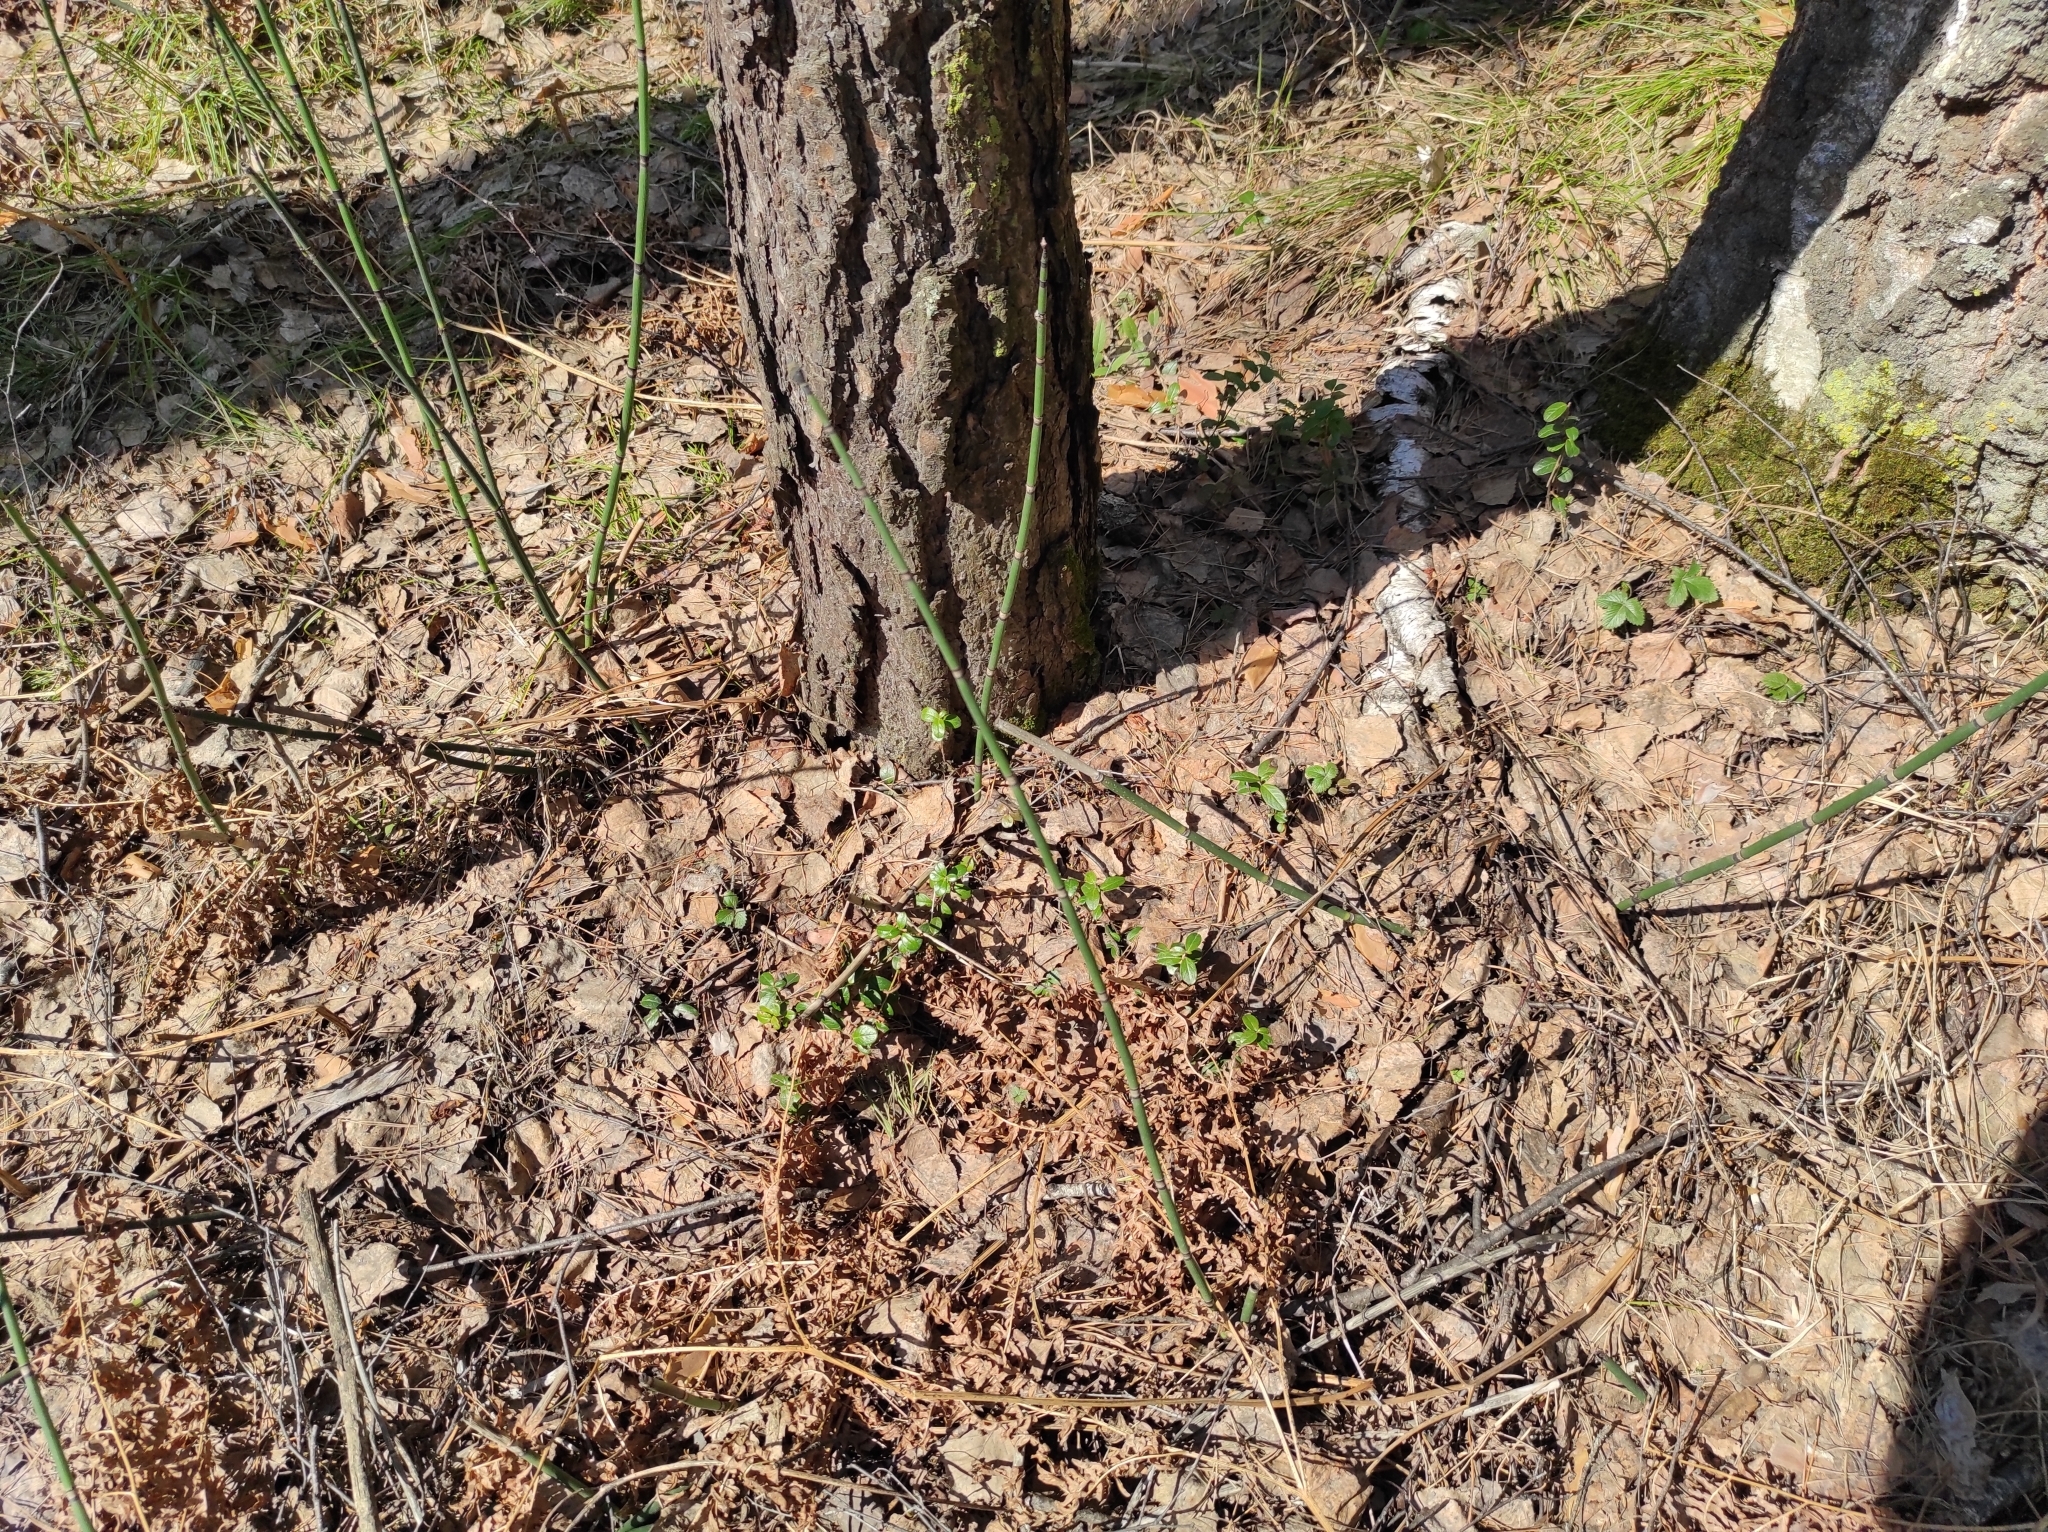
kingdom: Plantae
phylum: Tracheophyta
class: Magnoliopsida
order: Ericales
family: Ericaceae
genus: Vaccinium
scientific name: Vaccinium vitis-idaea
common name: Cowberry
